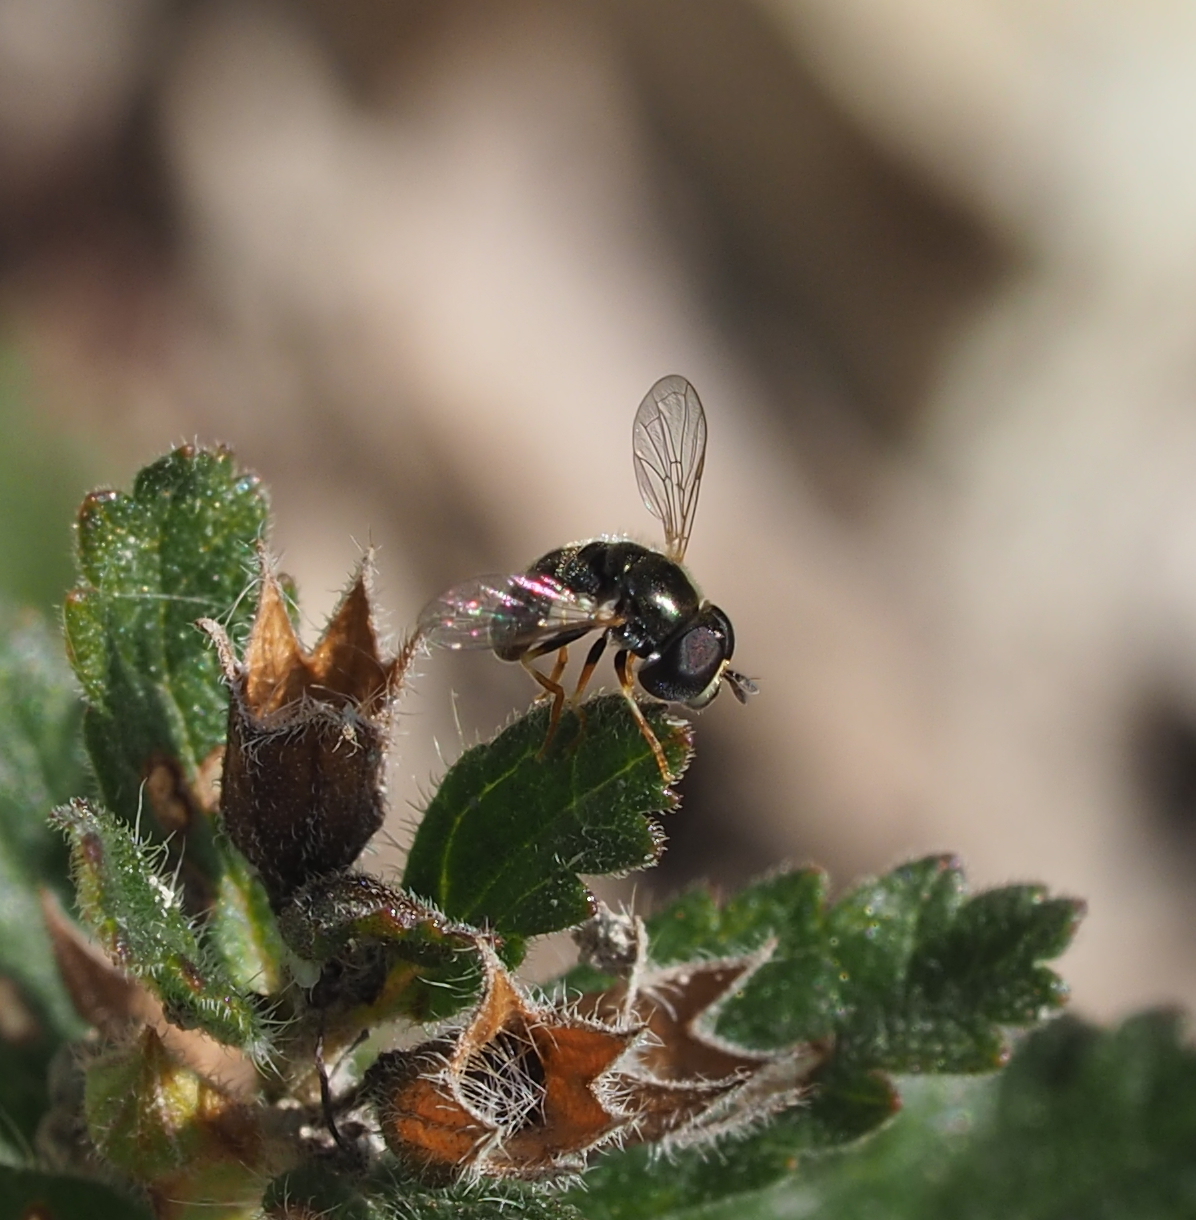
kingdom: Animalia
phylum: Arthropoda
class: Insecta
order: Diptera
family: Syrphidae
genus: Paragus
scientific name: Paragus haemorrhous
